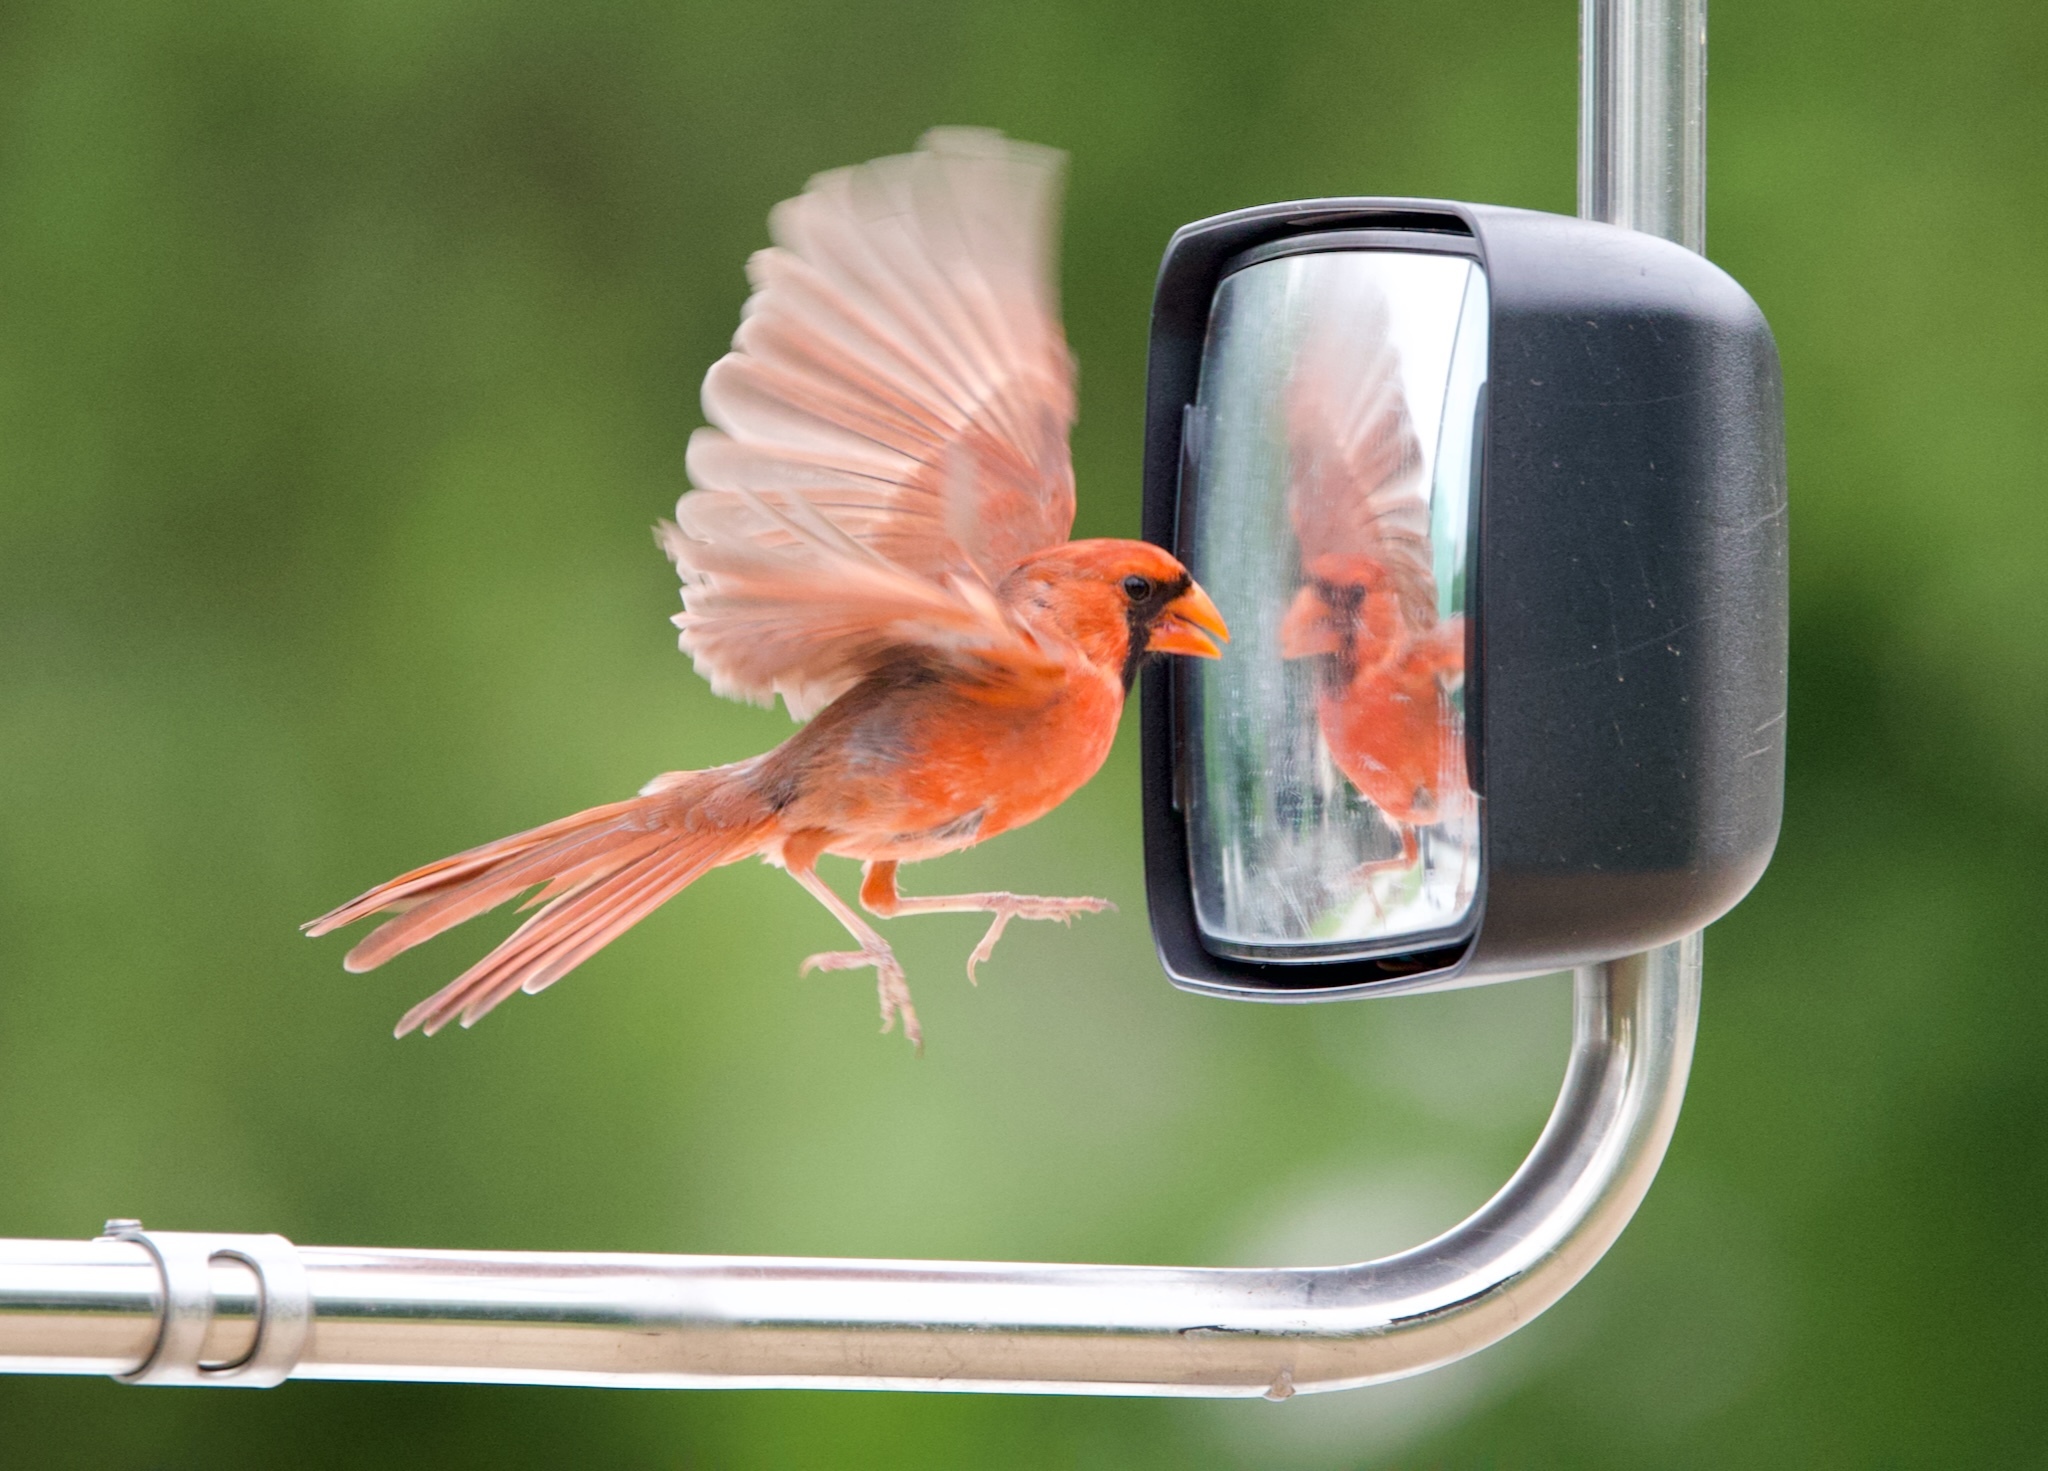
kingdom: Animalia
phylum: Chordata
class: Aves
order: Passeriformes
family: Cardinalidae
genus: Cardinalis
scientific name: Cardinalis cardinalis
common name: Northern cardinal
